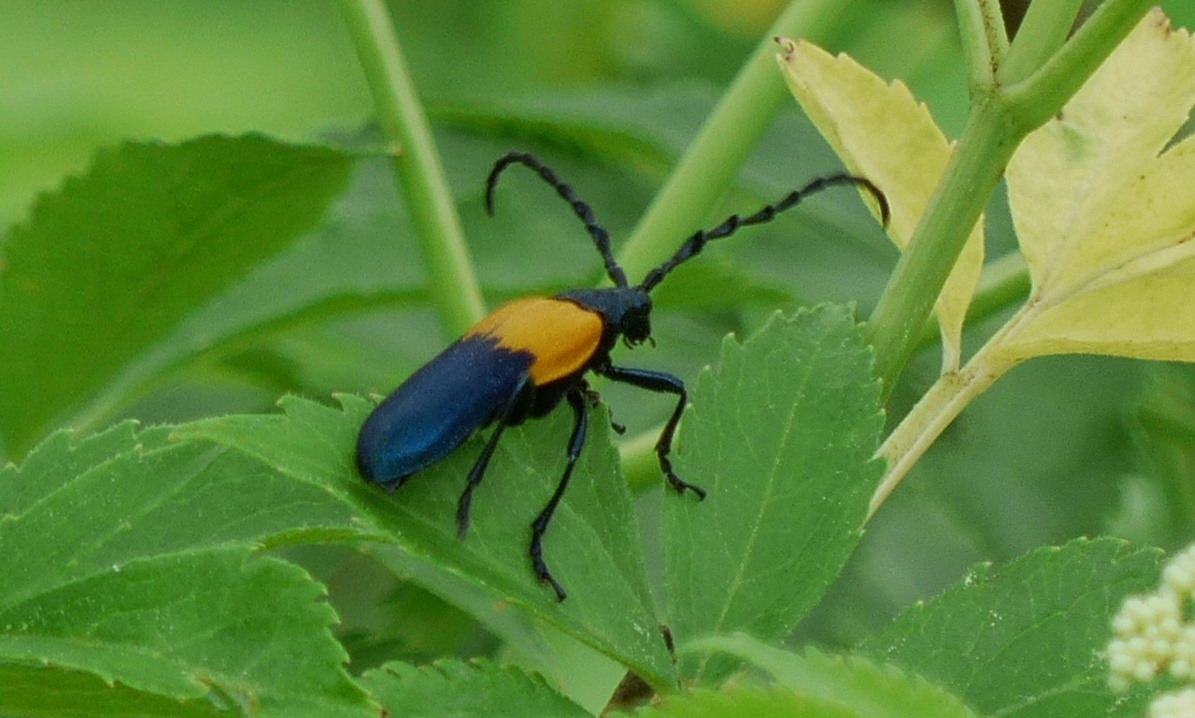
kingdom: Animalia
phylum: Arthropoda
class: Insecta
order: Coleoptera
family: Cerambycidae
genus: Desmocerus
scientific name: Desmocerus palliatus
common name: Eastern elderberry borer
